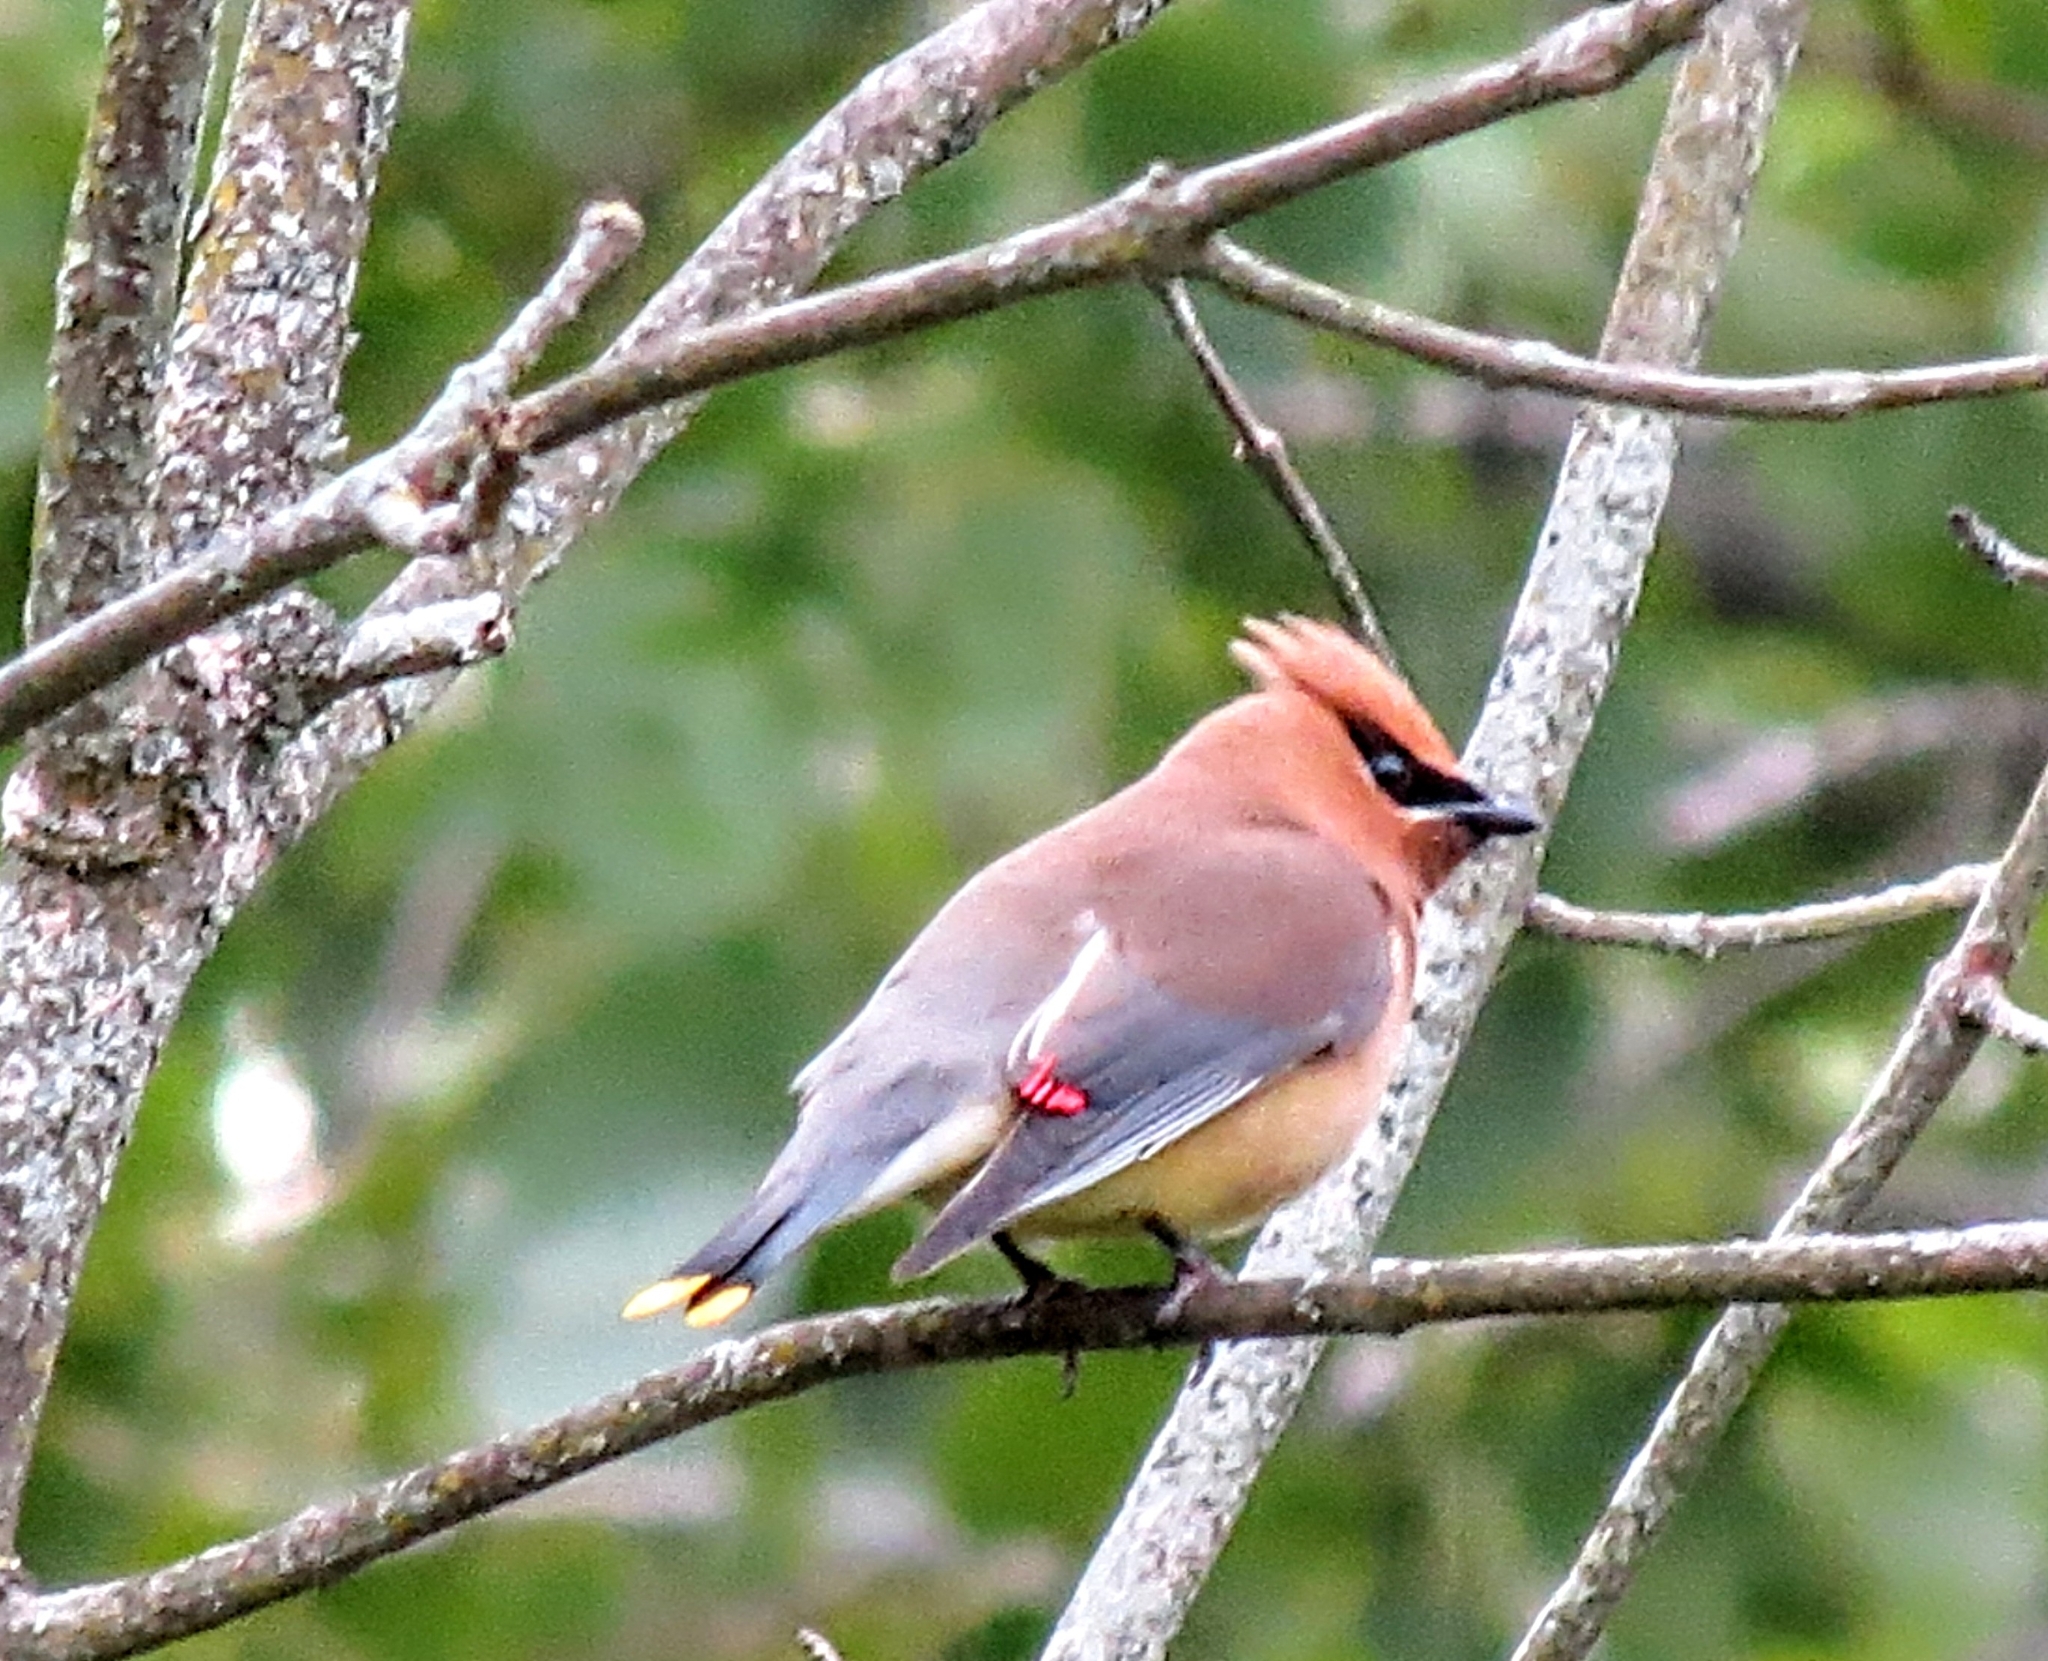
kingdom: Animalia
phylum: Chordata
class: Aves
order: Passeriformes
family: Bombycillidae
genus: Bombycilla
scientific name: Bombycilla cedrorum
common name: Cedar waxwing
